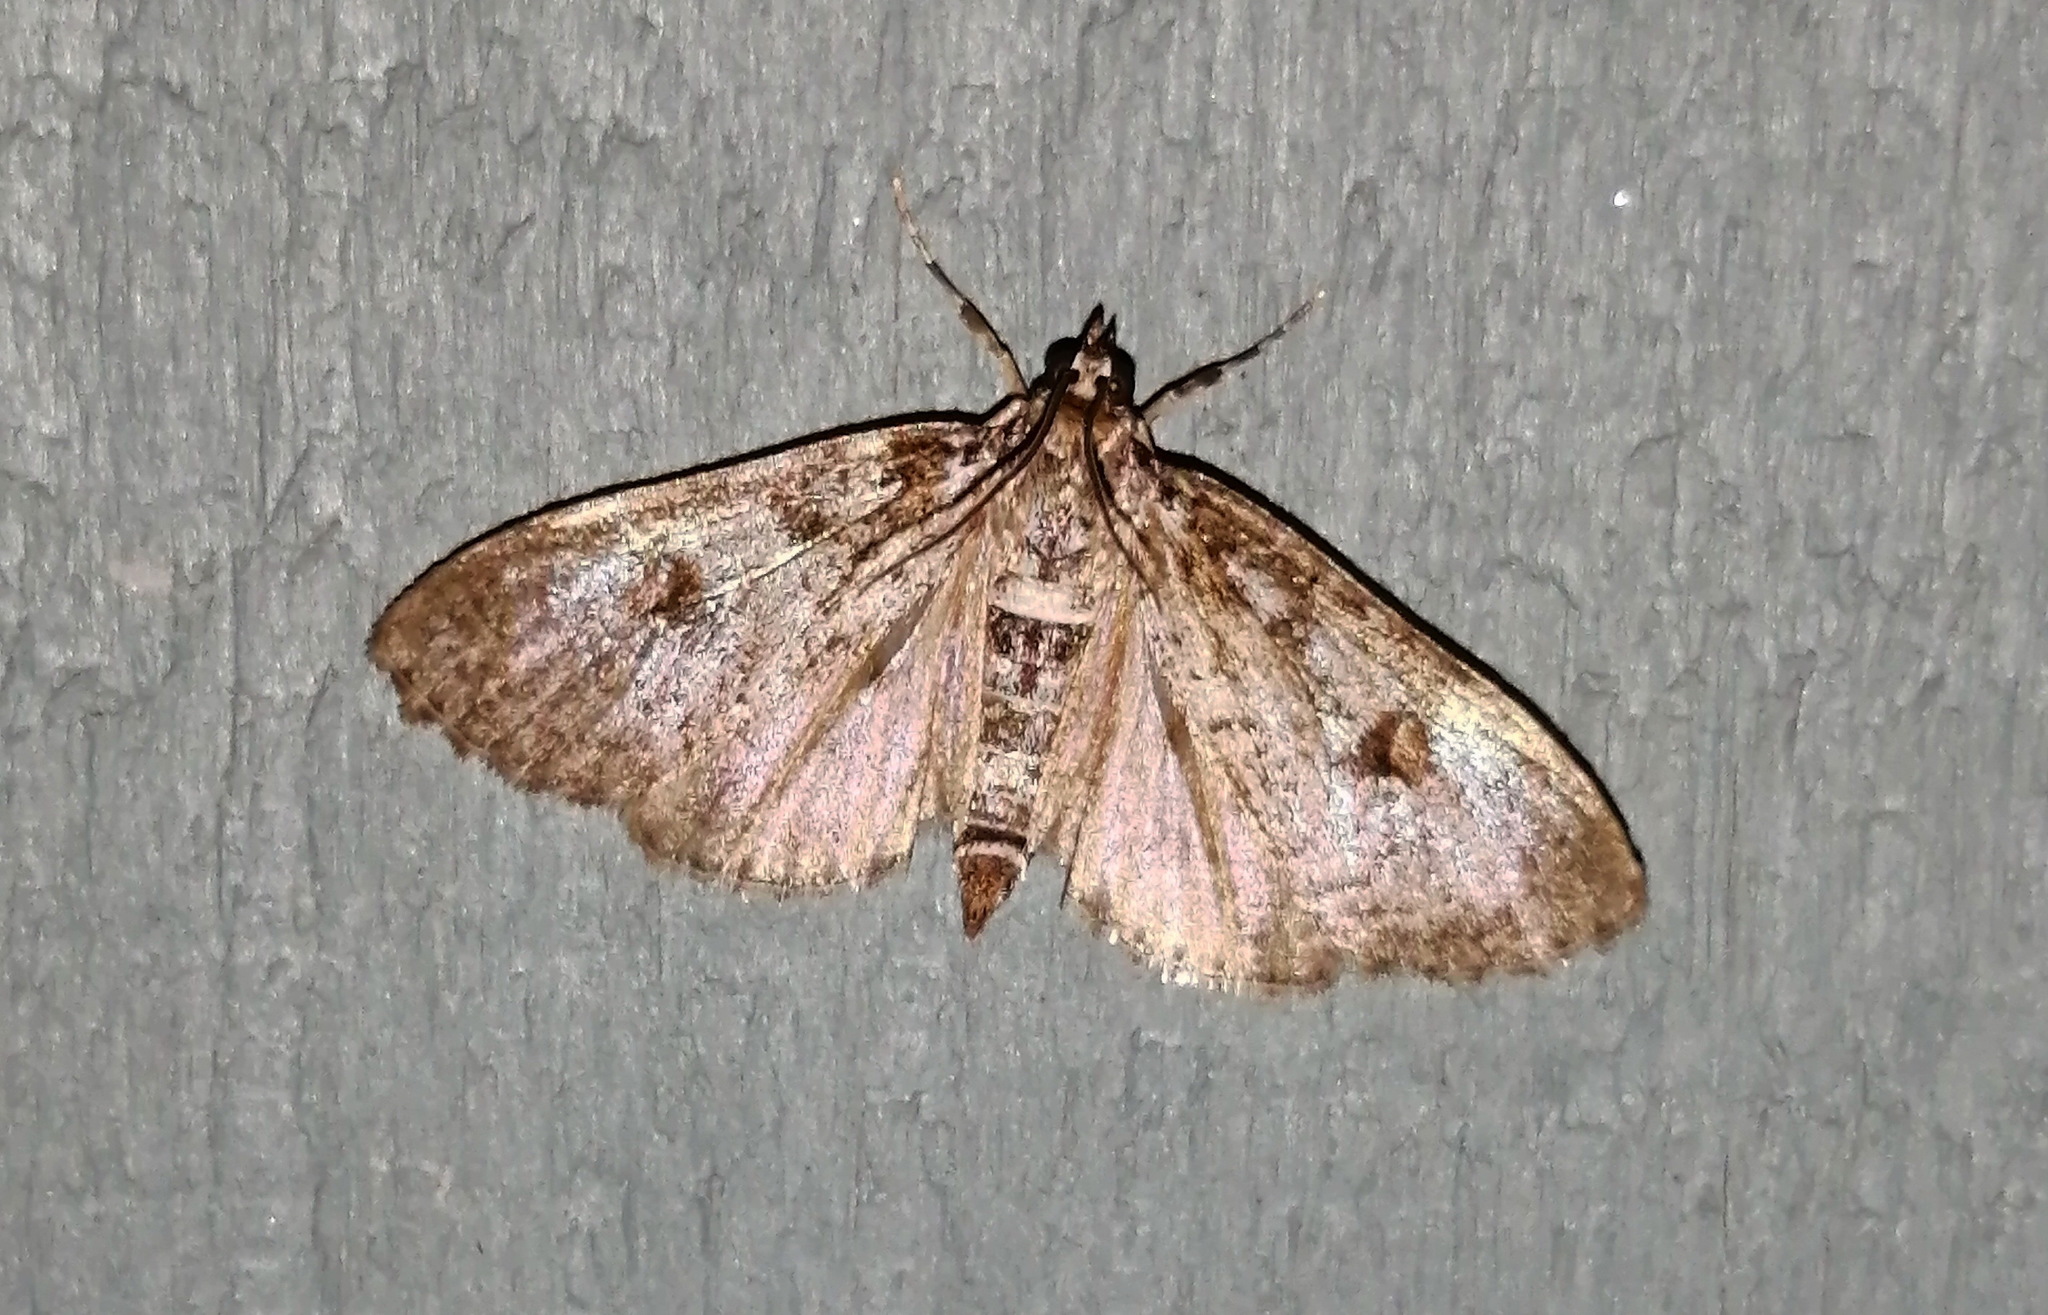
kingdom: Animalia
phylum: Arthropoda
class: Insecta
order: Lepidoptera
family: Crambidae
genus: Palpita
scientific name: Palpita magniferalis
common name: Splendid palpita moth
